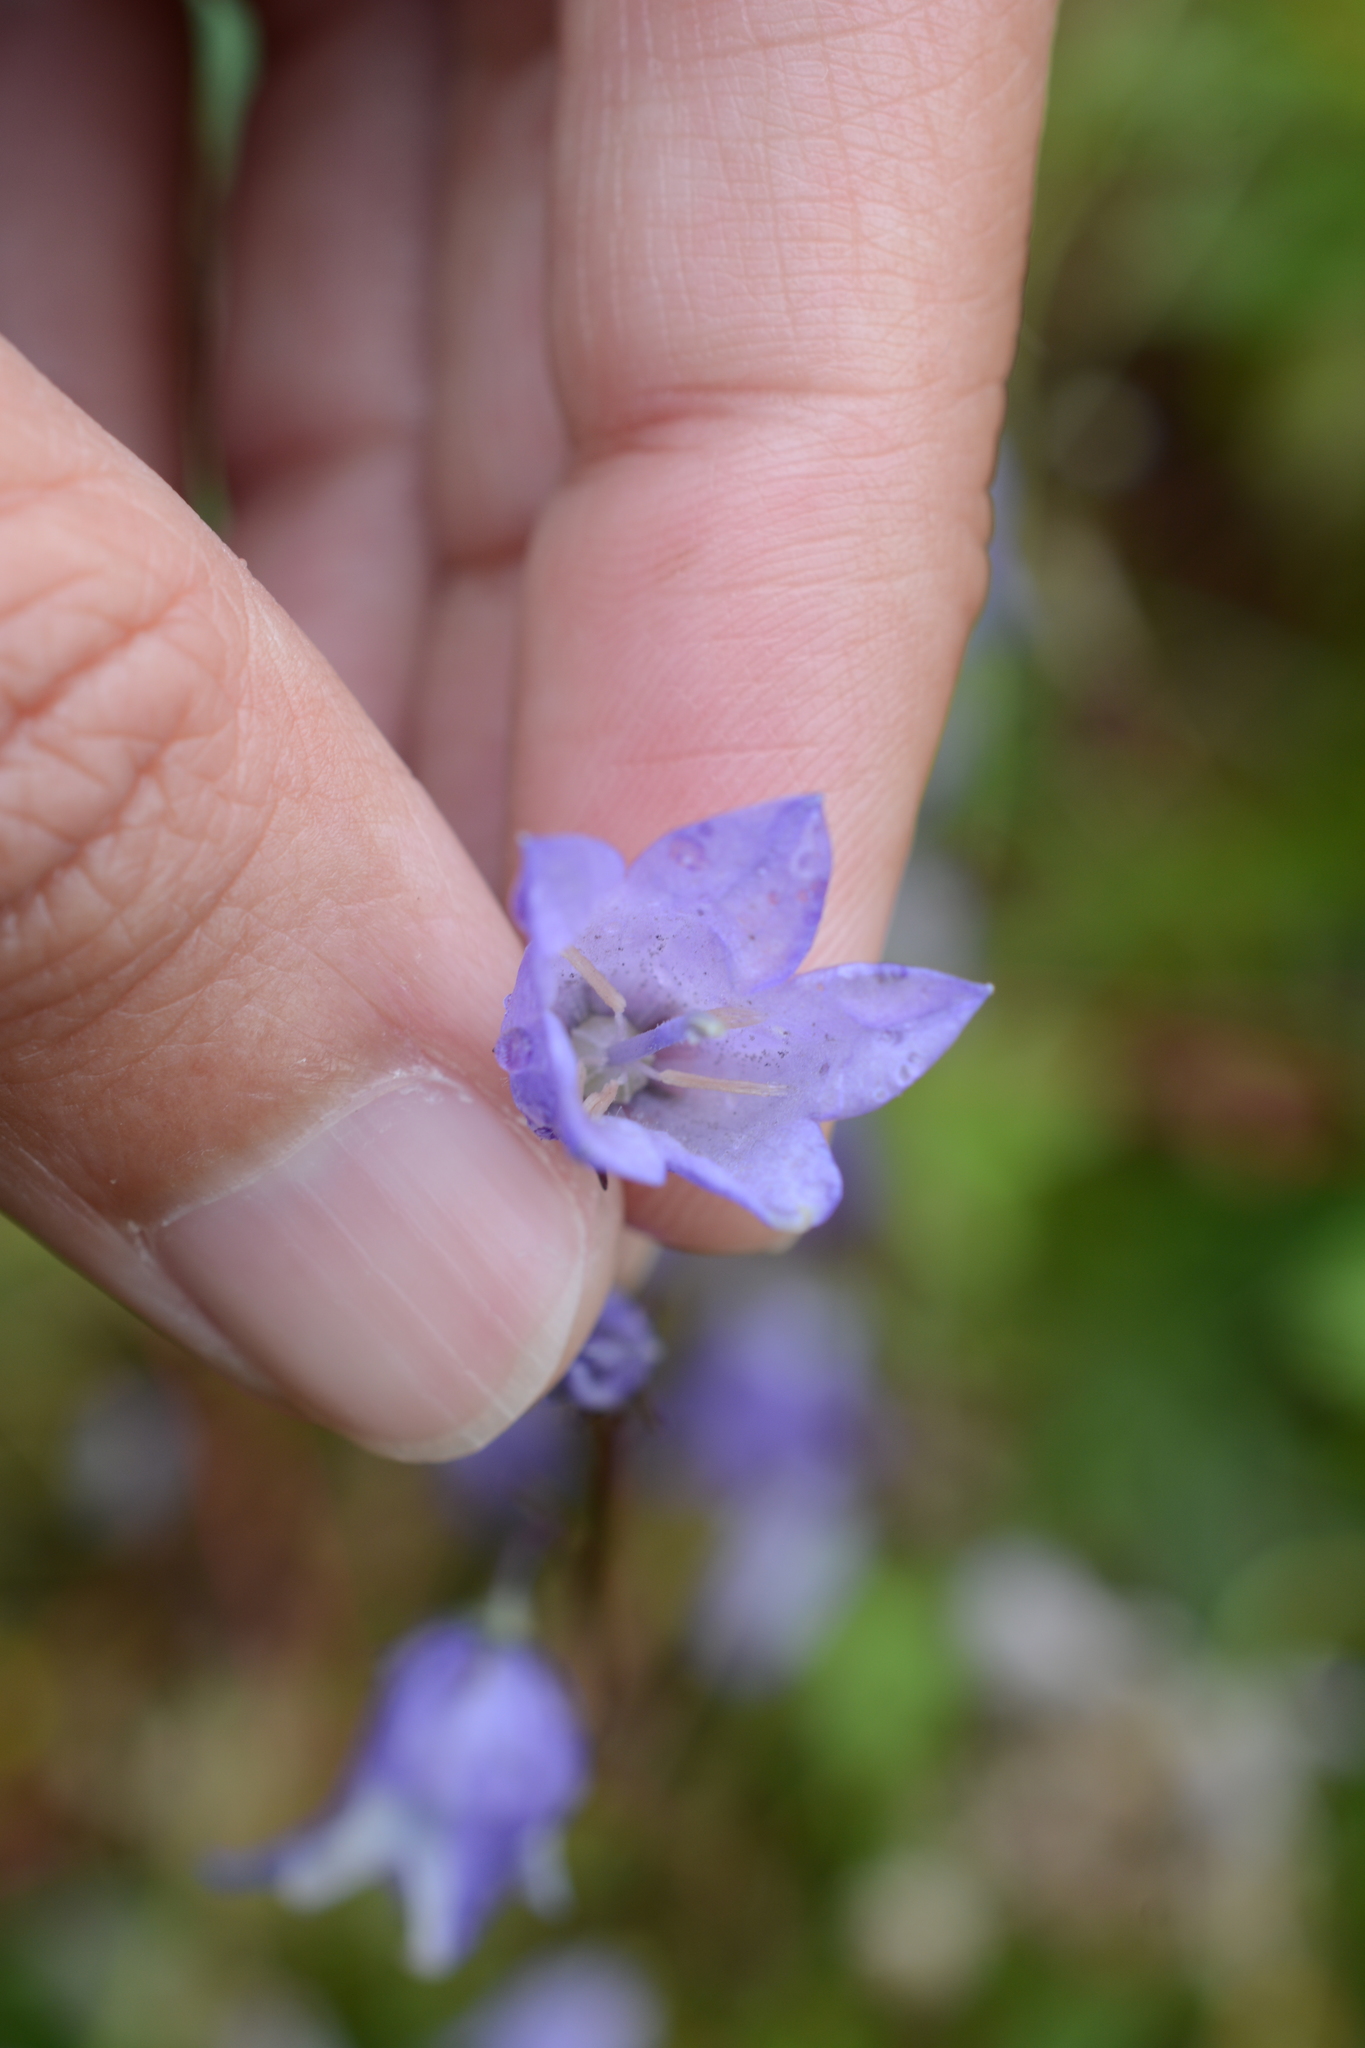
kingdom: Plantae
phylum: Tracheophyta
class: Magnoliopsida
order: Asterales
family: Campanulaceae
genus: Campanula
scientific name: Campanula alaskana
